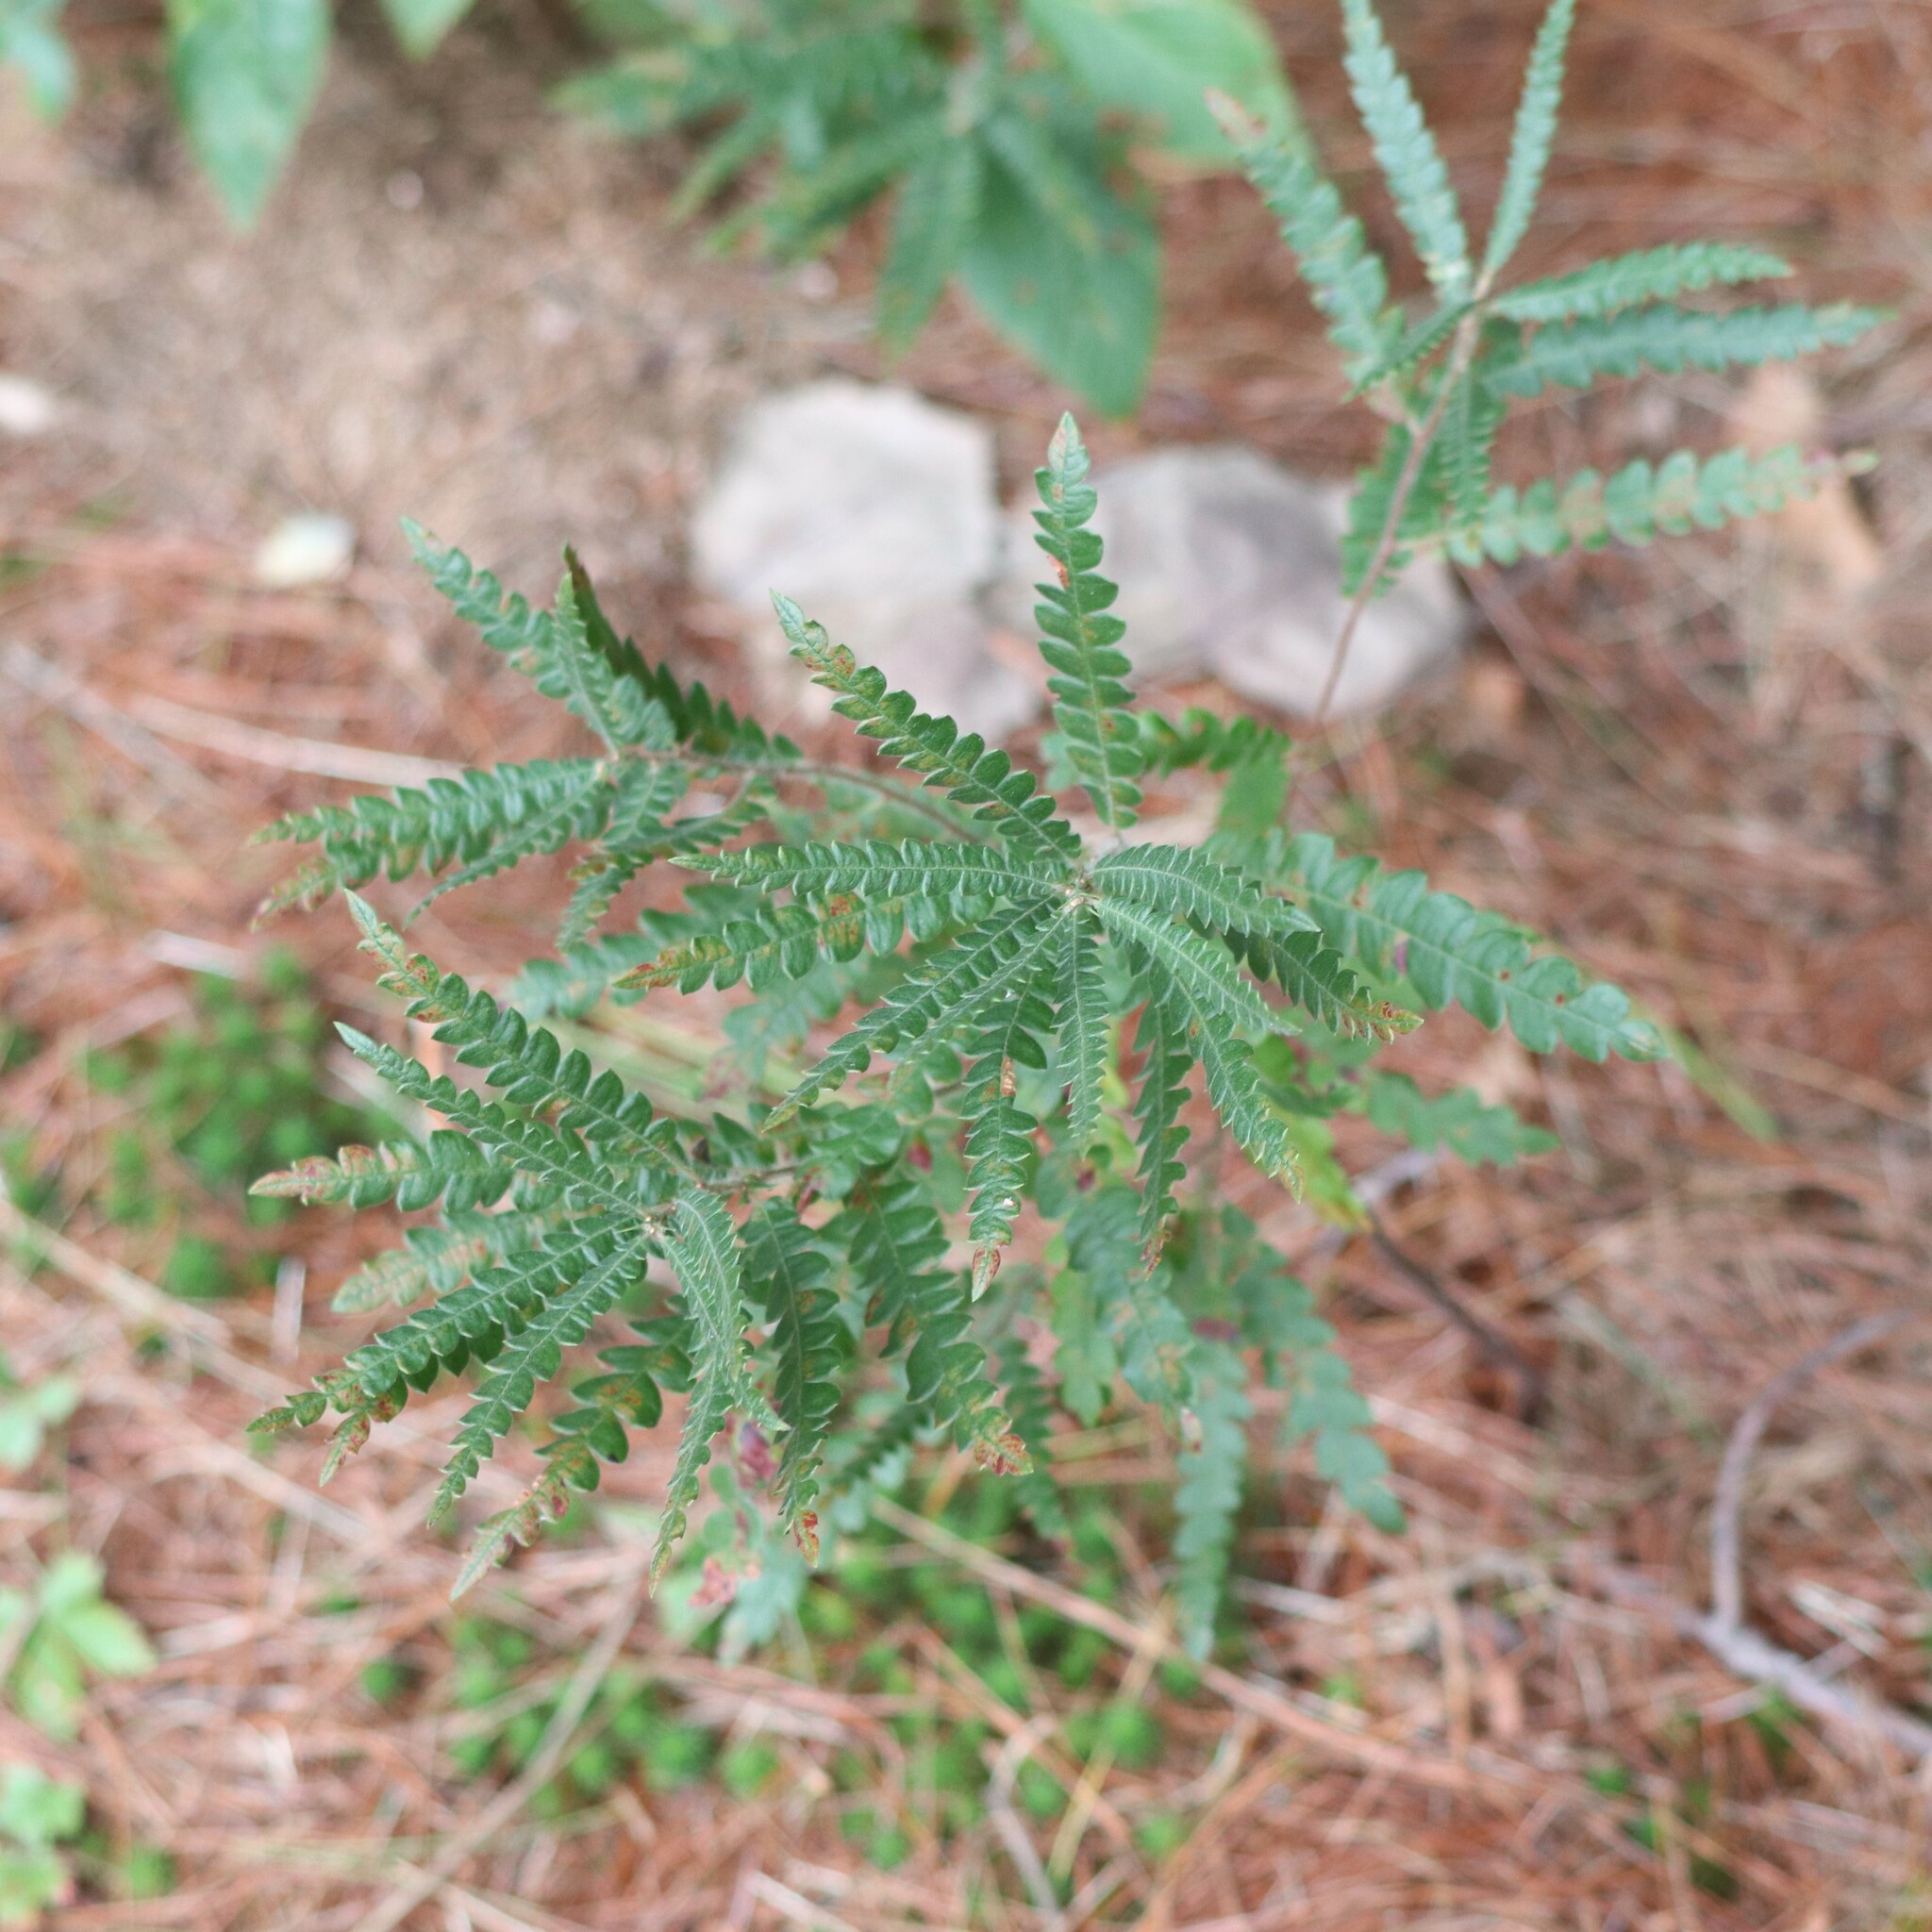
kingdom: Plantae
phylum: Tracheophyta
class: Magnoliopsida
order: Fagales
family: Myricaceae
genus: Comptonia
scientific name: Comptonia peregrina
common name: Sweet-fern
